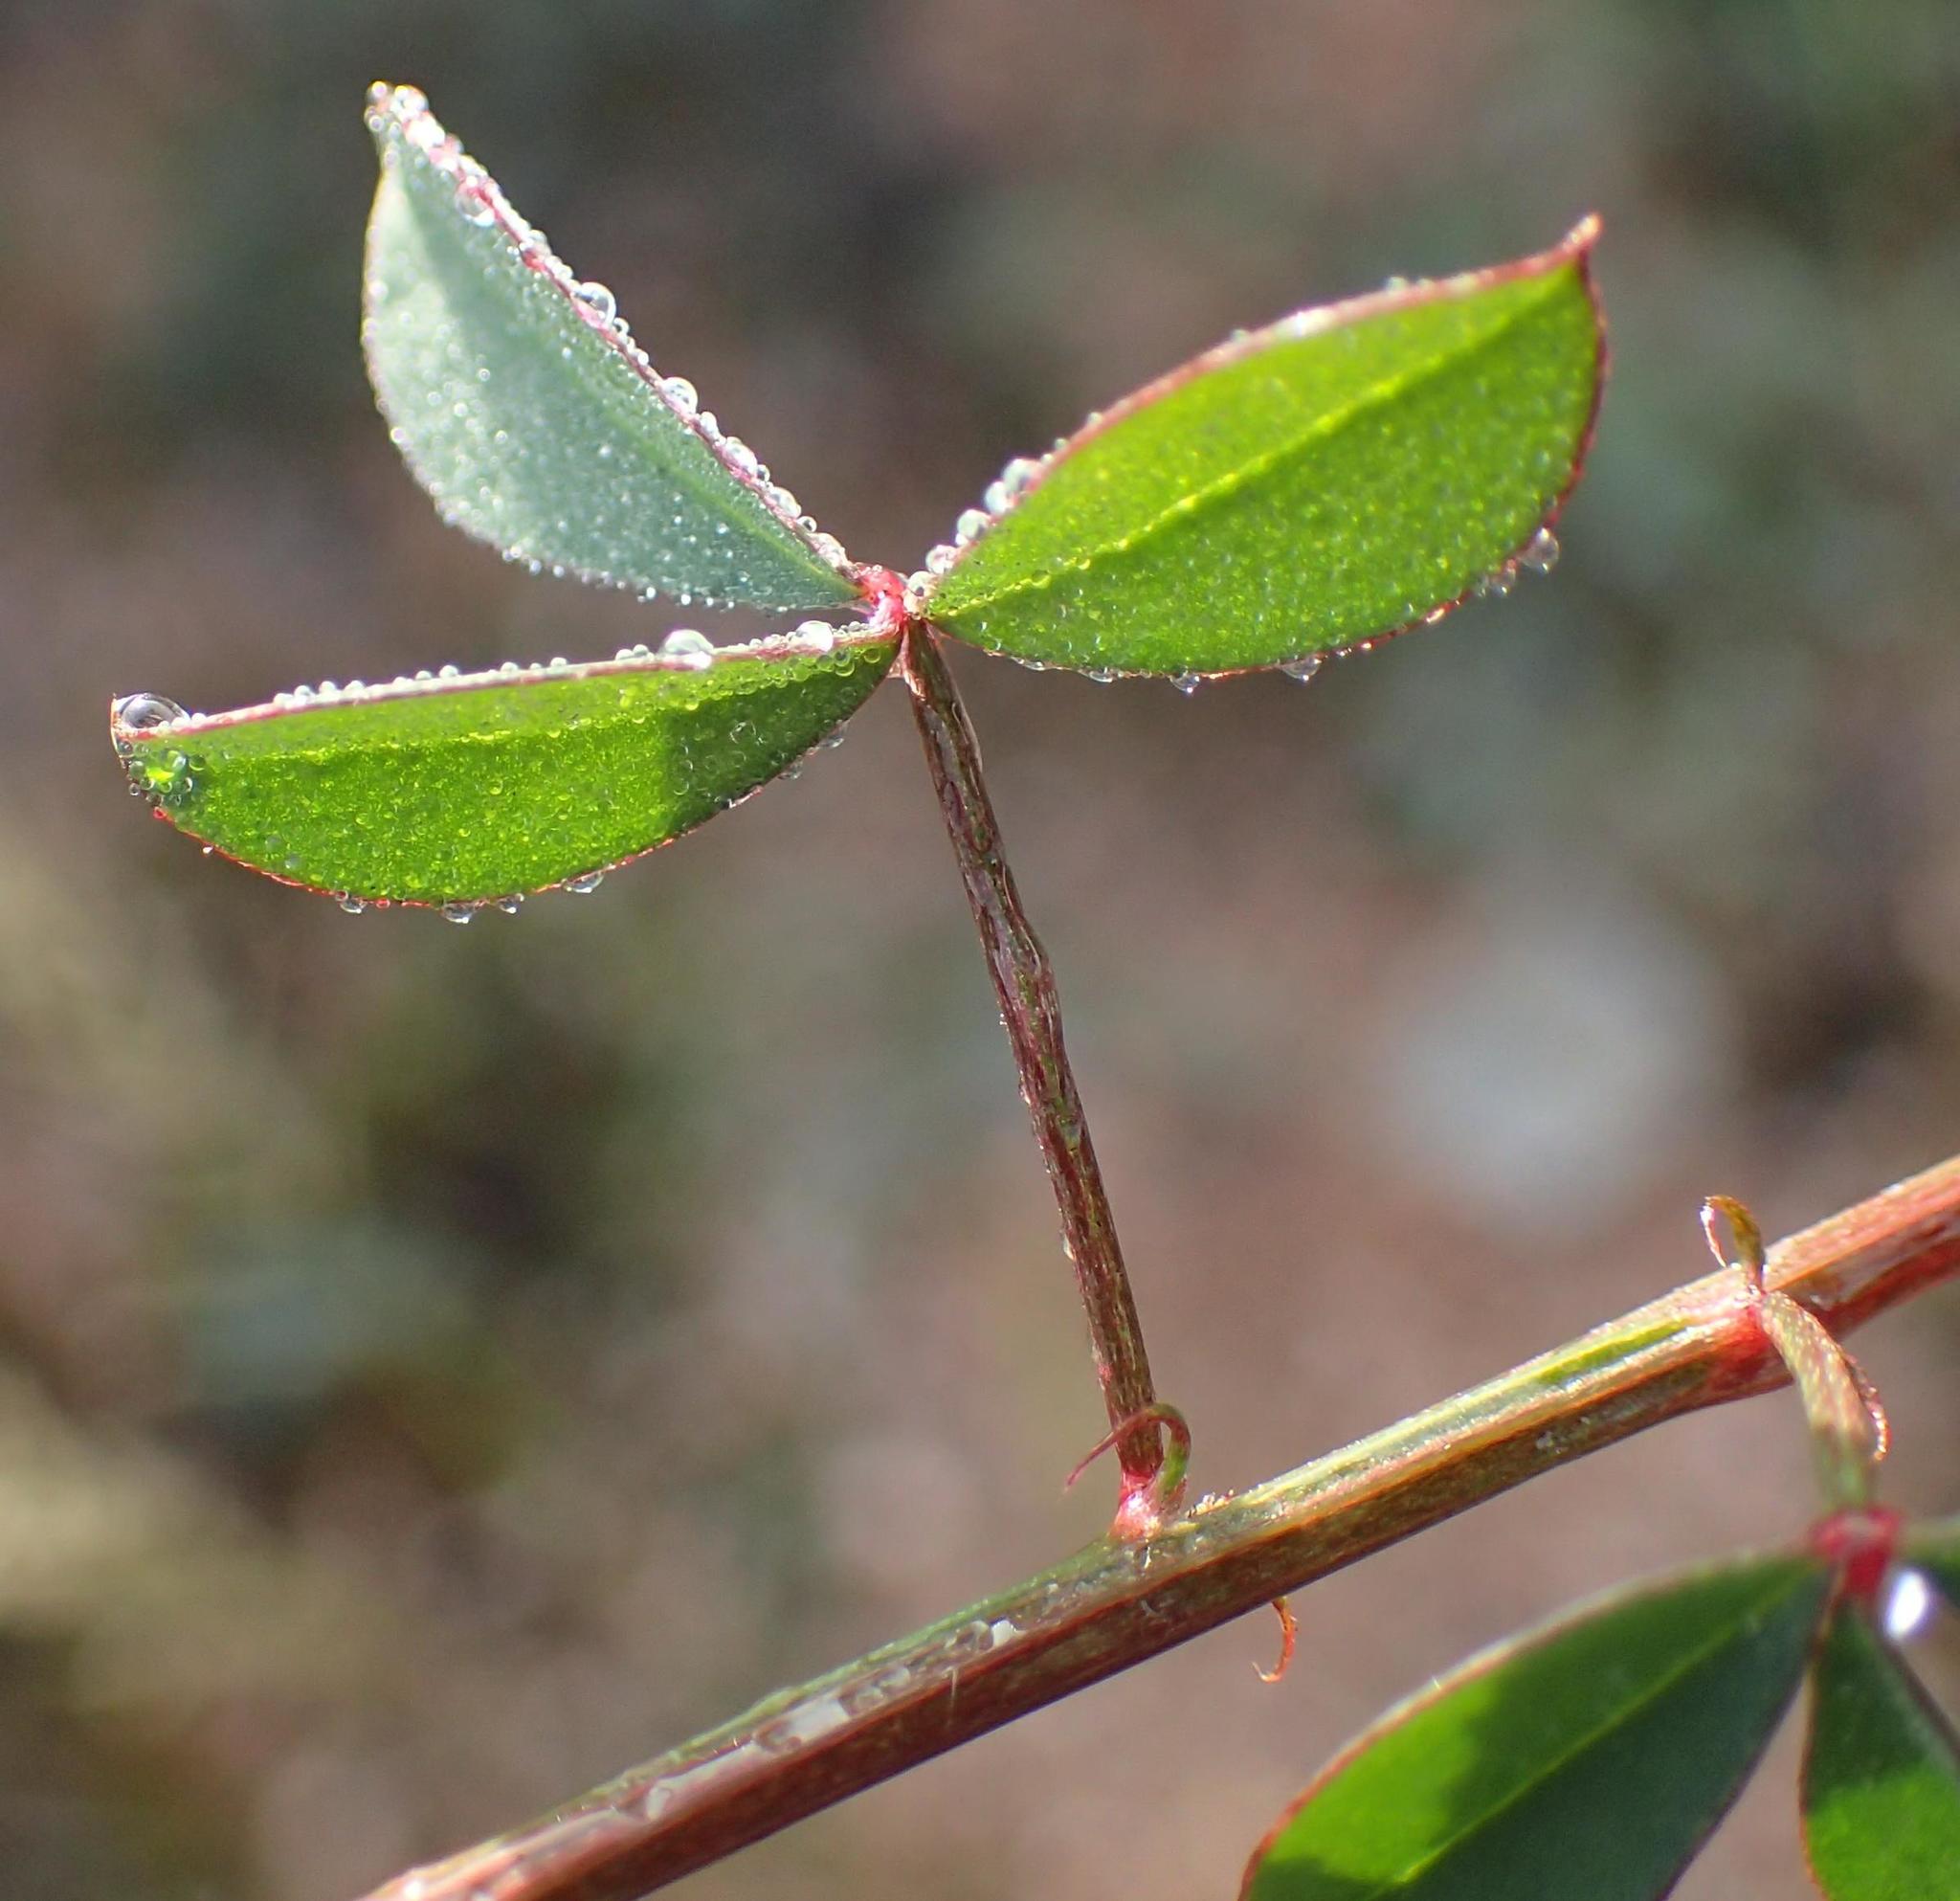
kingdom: Plantae
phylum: Tracheophyta
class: Magnoliopsida
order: Fabales
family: Fabaceae
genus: Indigofera
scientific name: Indigofera heterophylla
